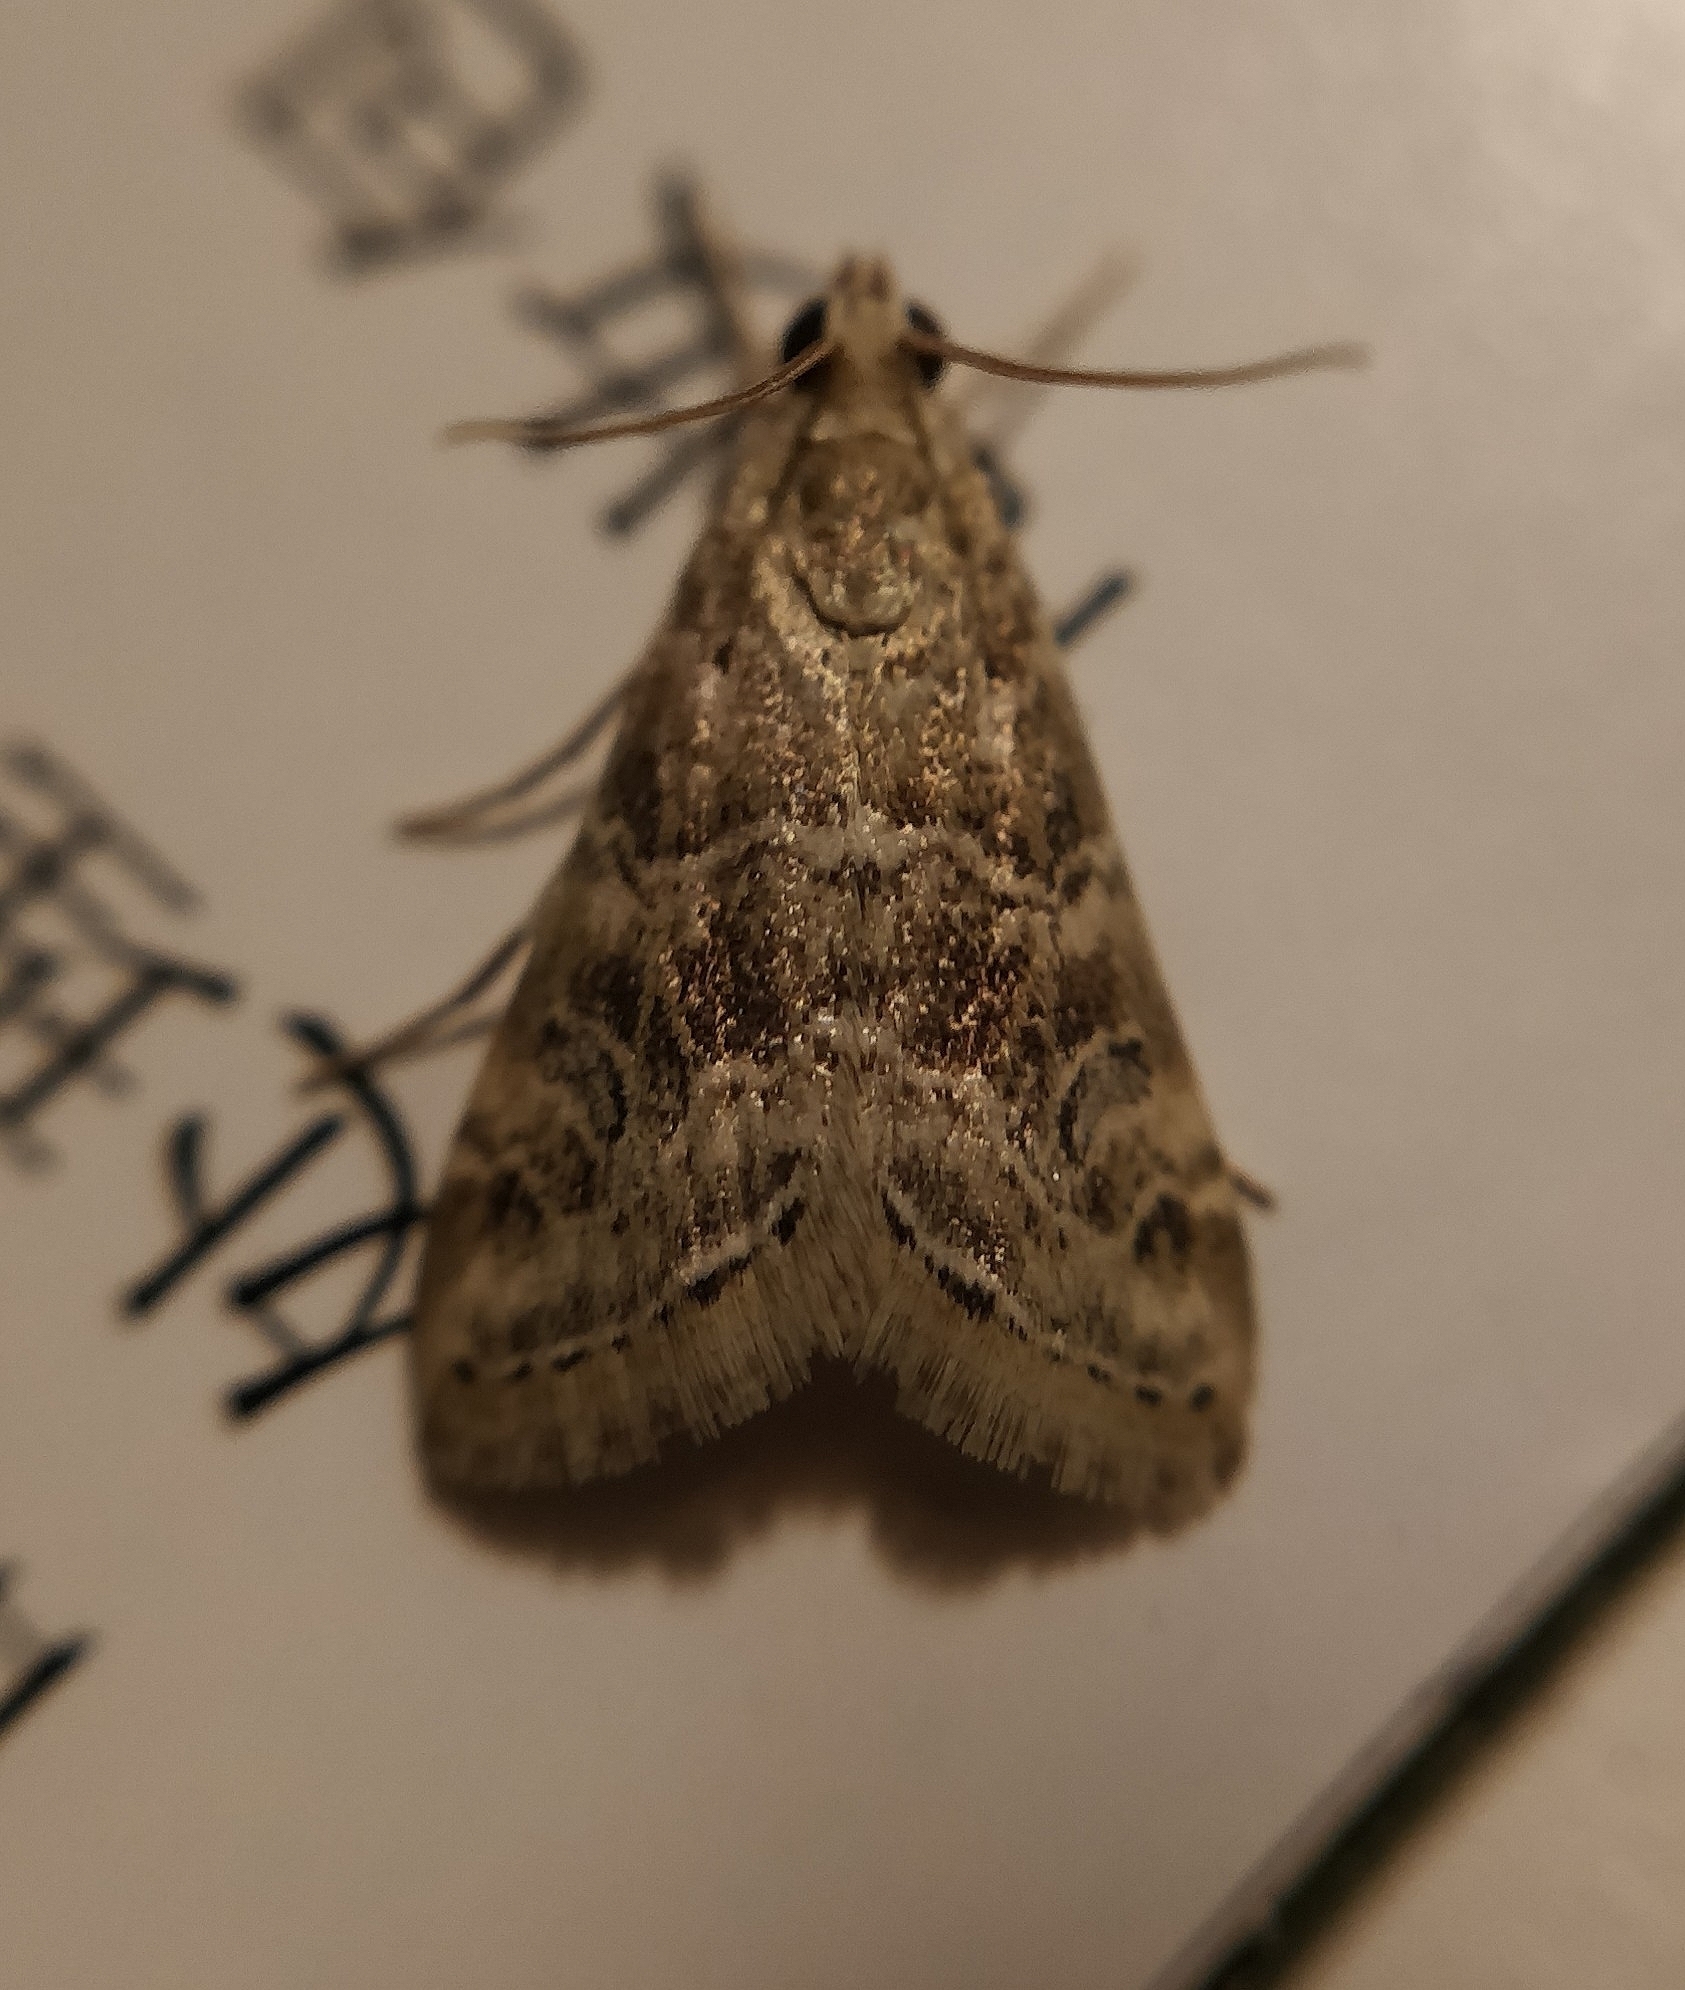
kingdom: Animalia
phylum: Arthropoda
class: Insecta
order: Lepidoptera
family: Crambidae
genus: Hellula
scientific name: Hellula undalis
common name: Cabbage webworm
